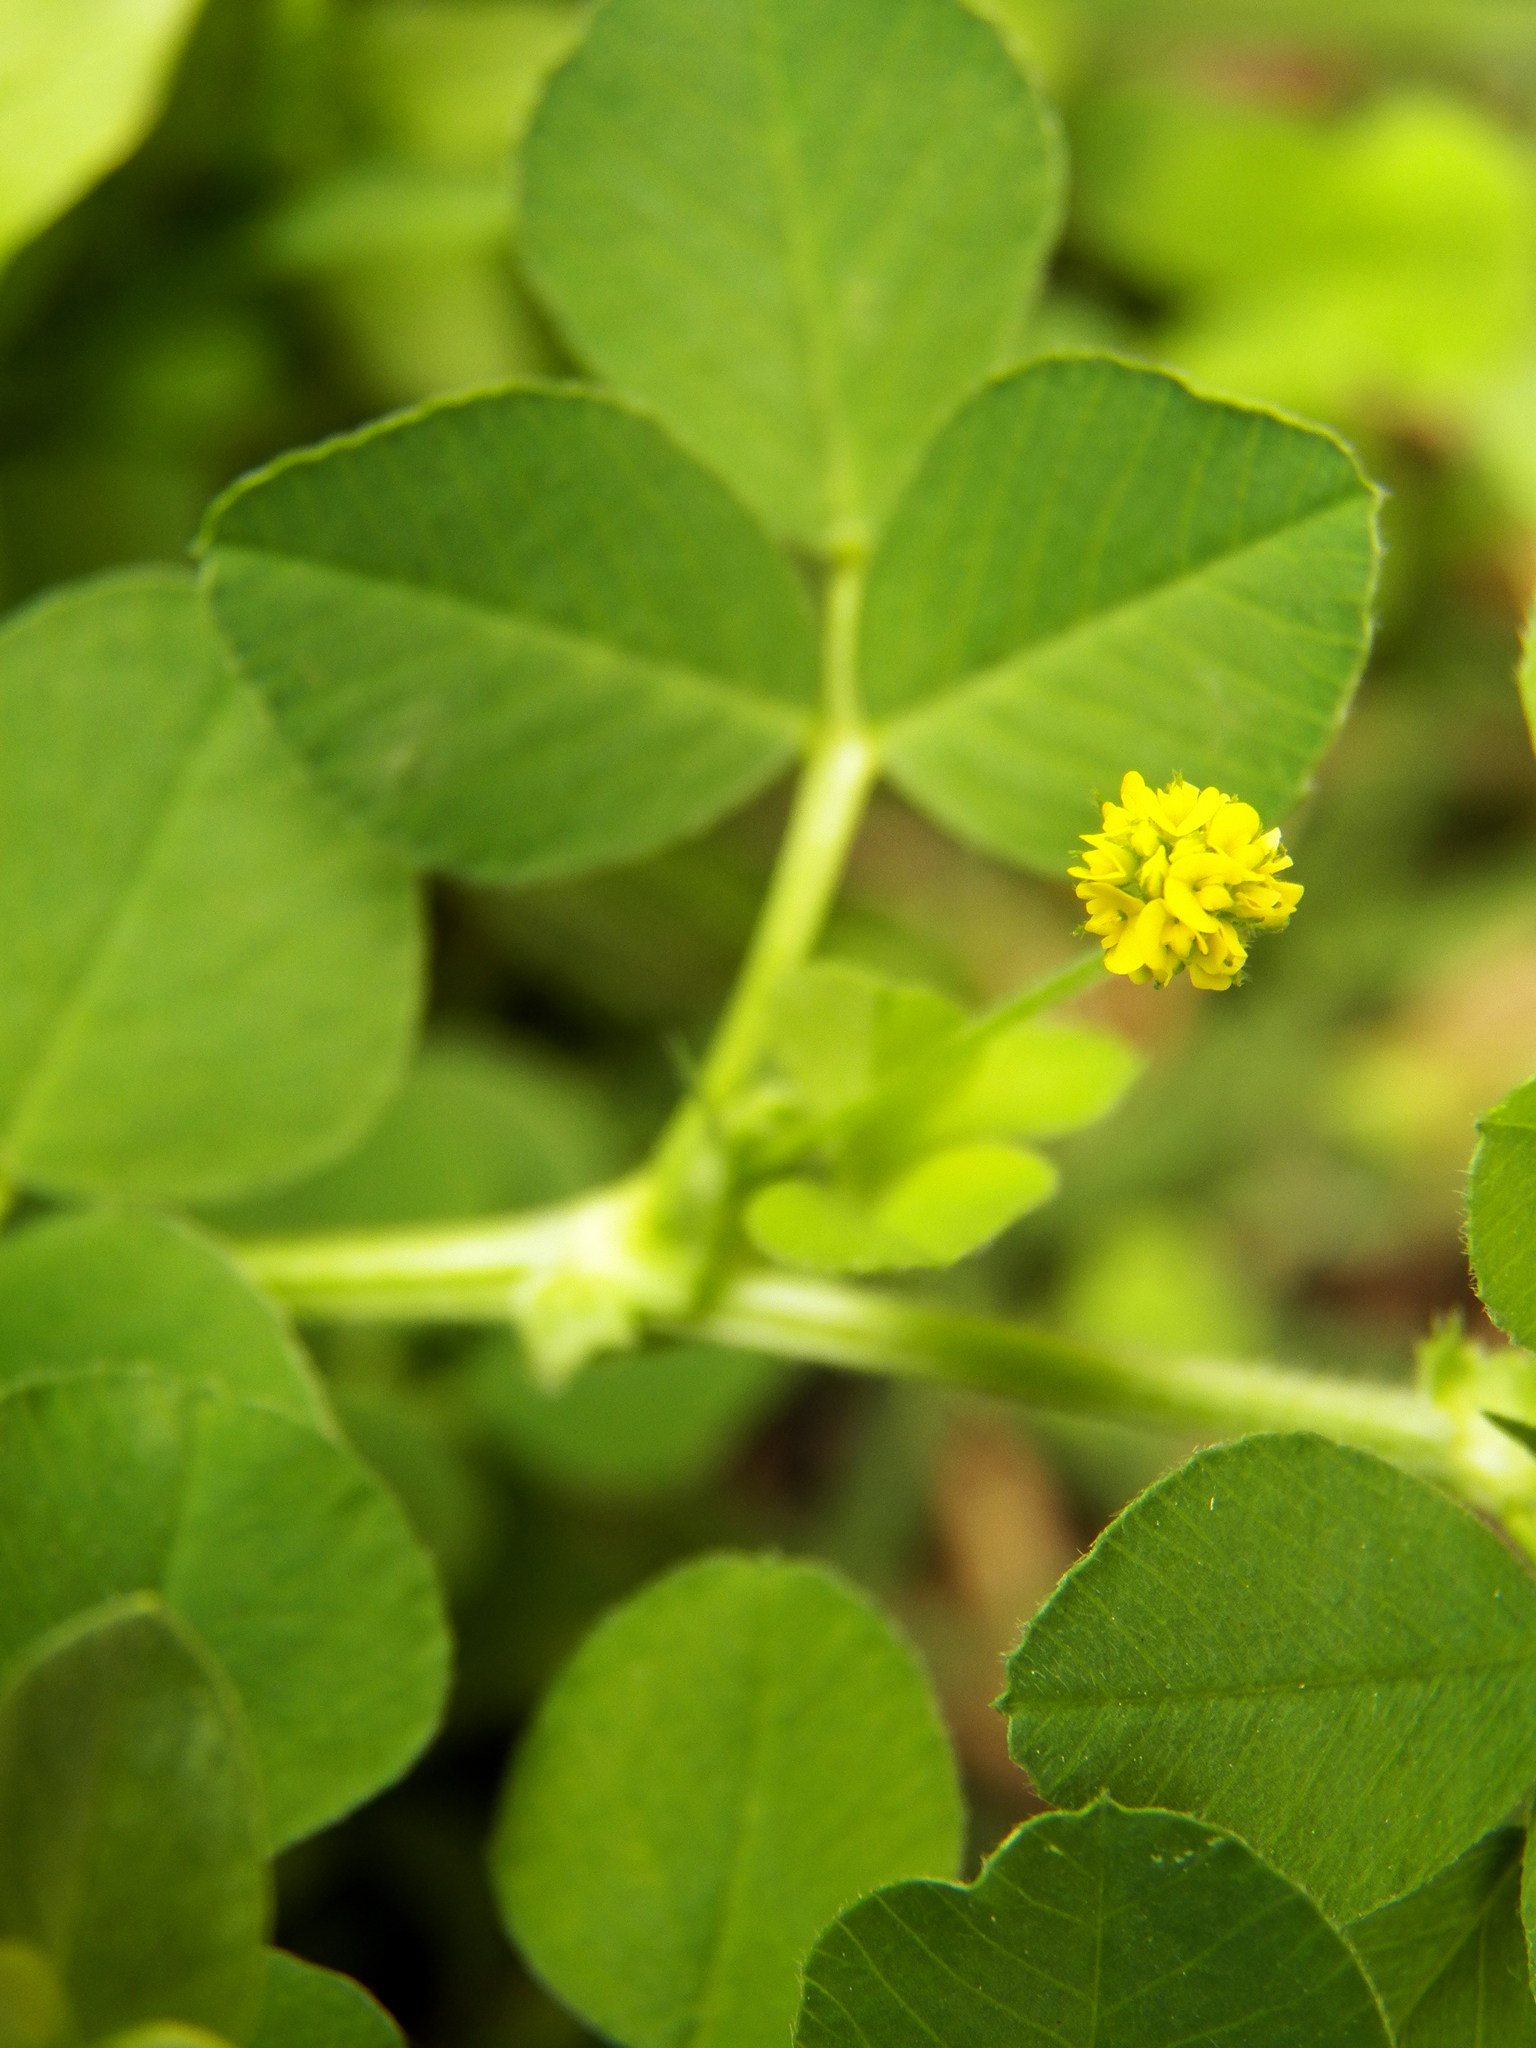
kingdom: Plantae
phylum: Tracheophyta
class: Magnoliopsida
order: Fabales
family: Fabaceae
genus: Medicago
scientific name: Medicago lupulina
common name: Black medick
